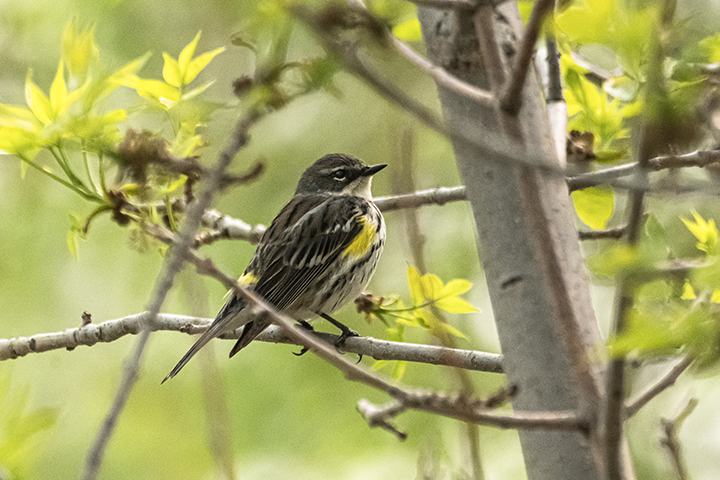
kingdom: Animalia
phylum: Chordata
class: Aves
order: Passeriformes
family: Parulidae
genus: Setophaga
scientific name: Setophaga coronata
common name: Myrtle warbler
